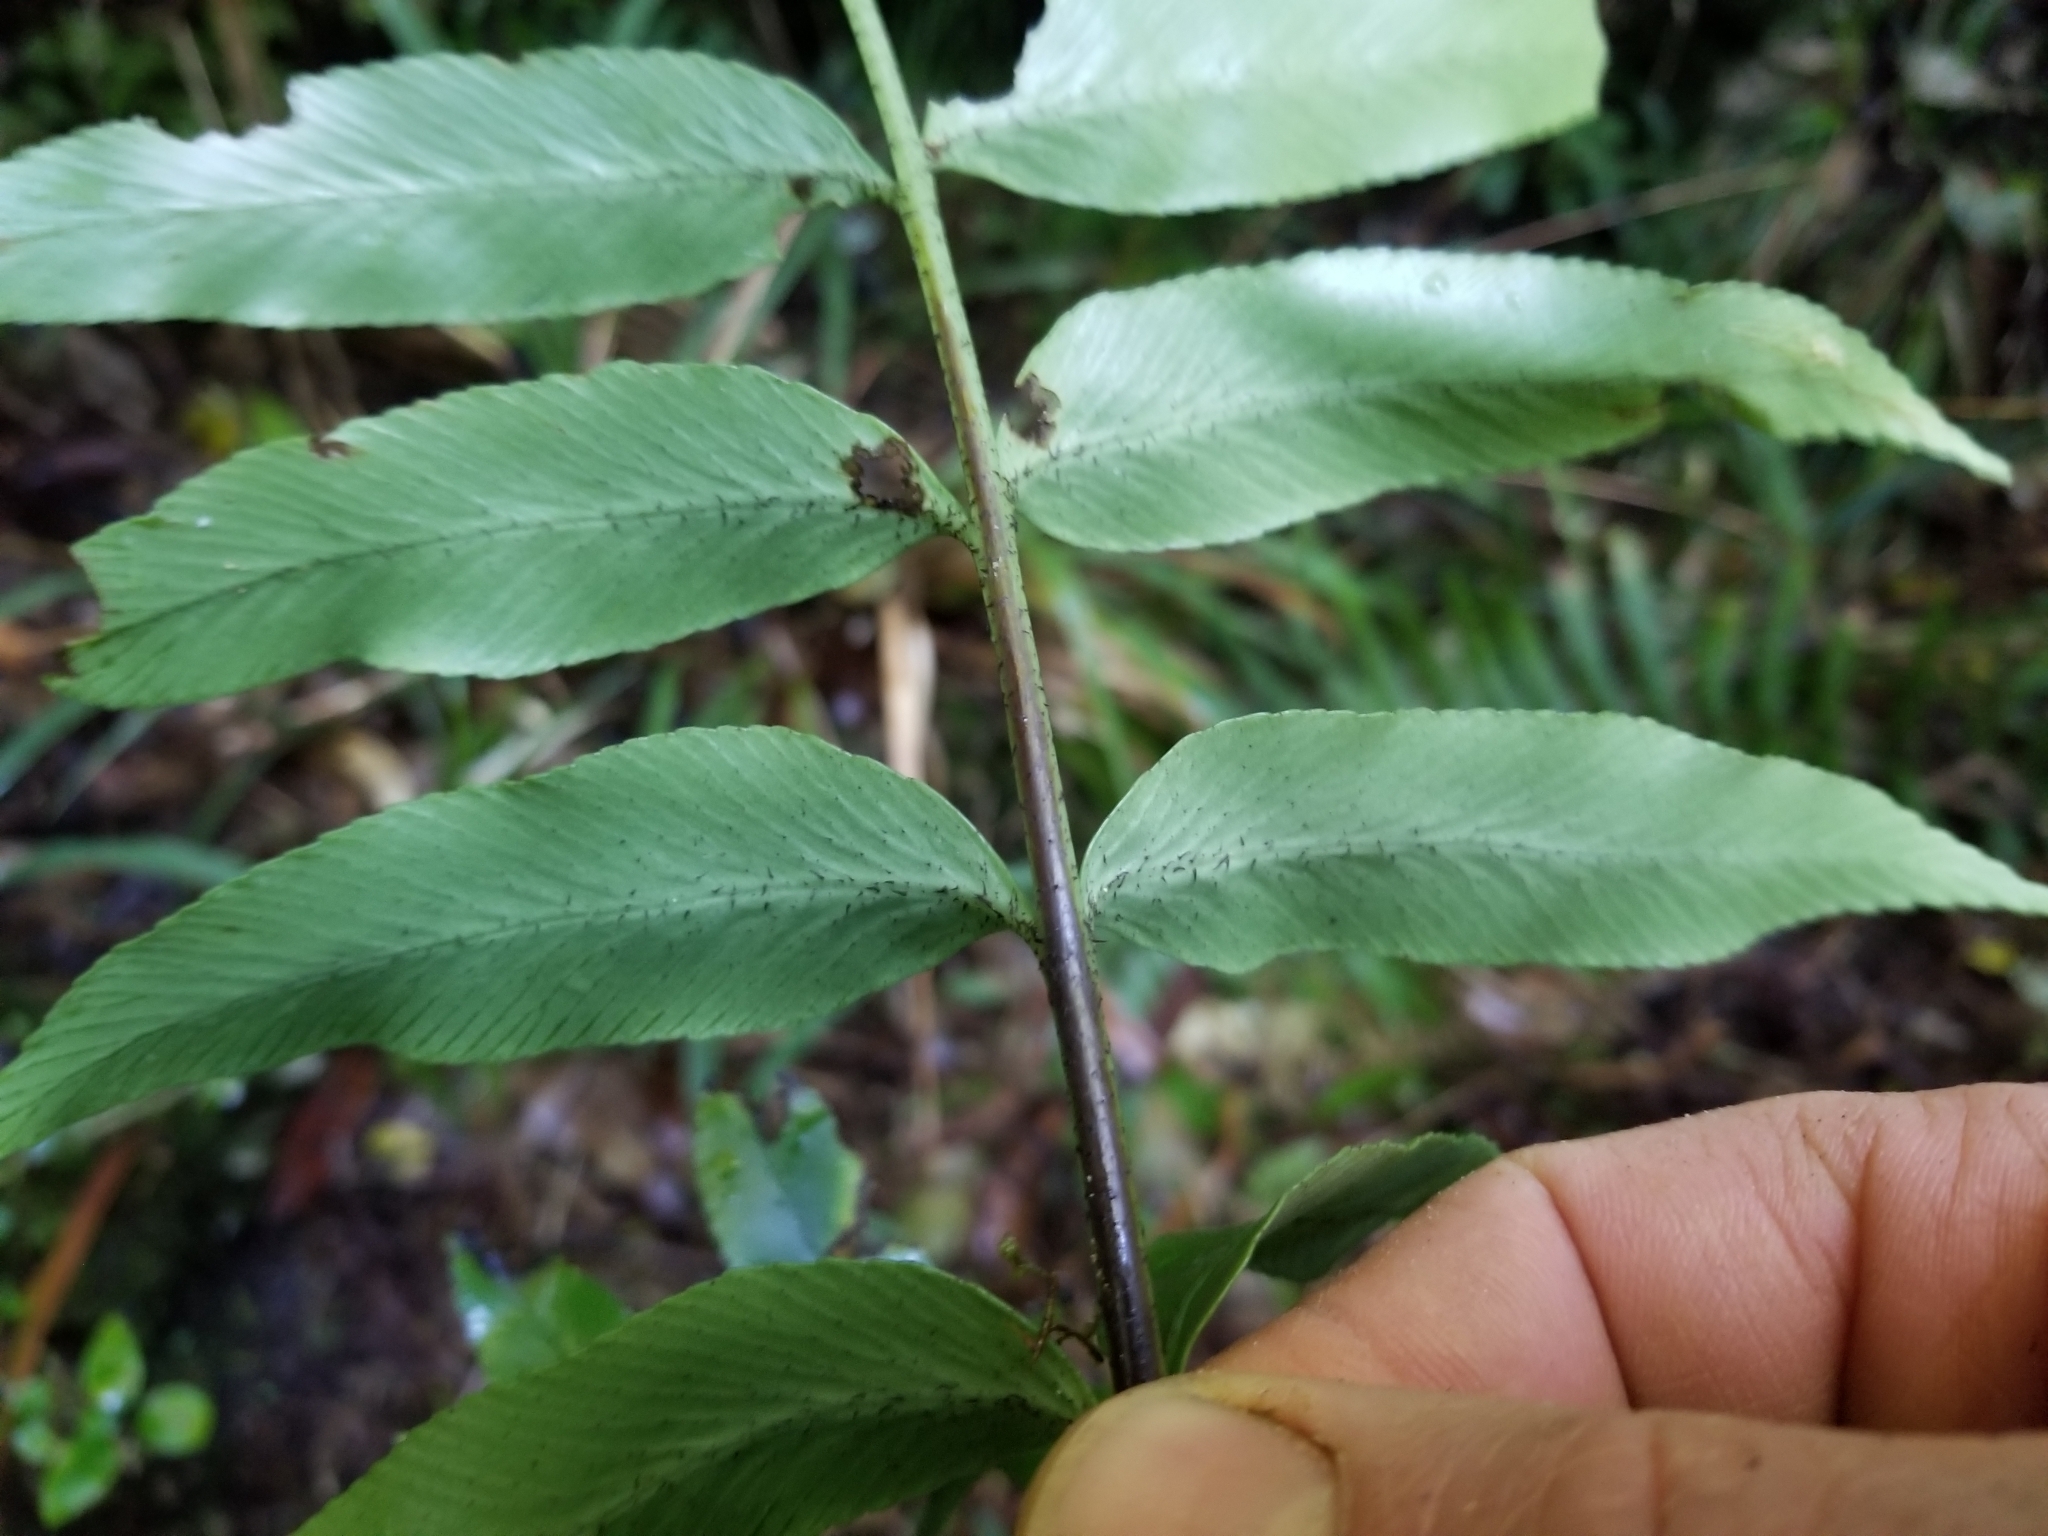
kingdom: Plantae
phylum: Tracheophyta
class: Polypodiopsida
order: Polypodiales
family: Aspleniaceae
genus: Asplenium
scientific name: Asplenium lepidotum
